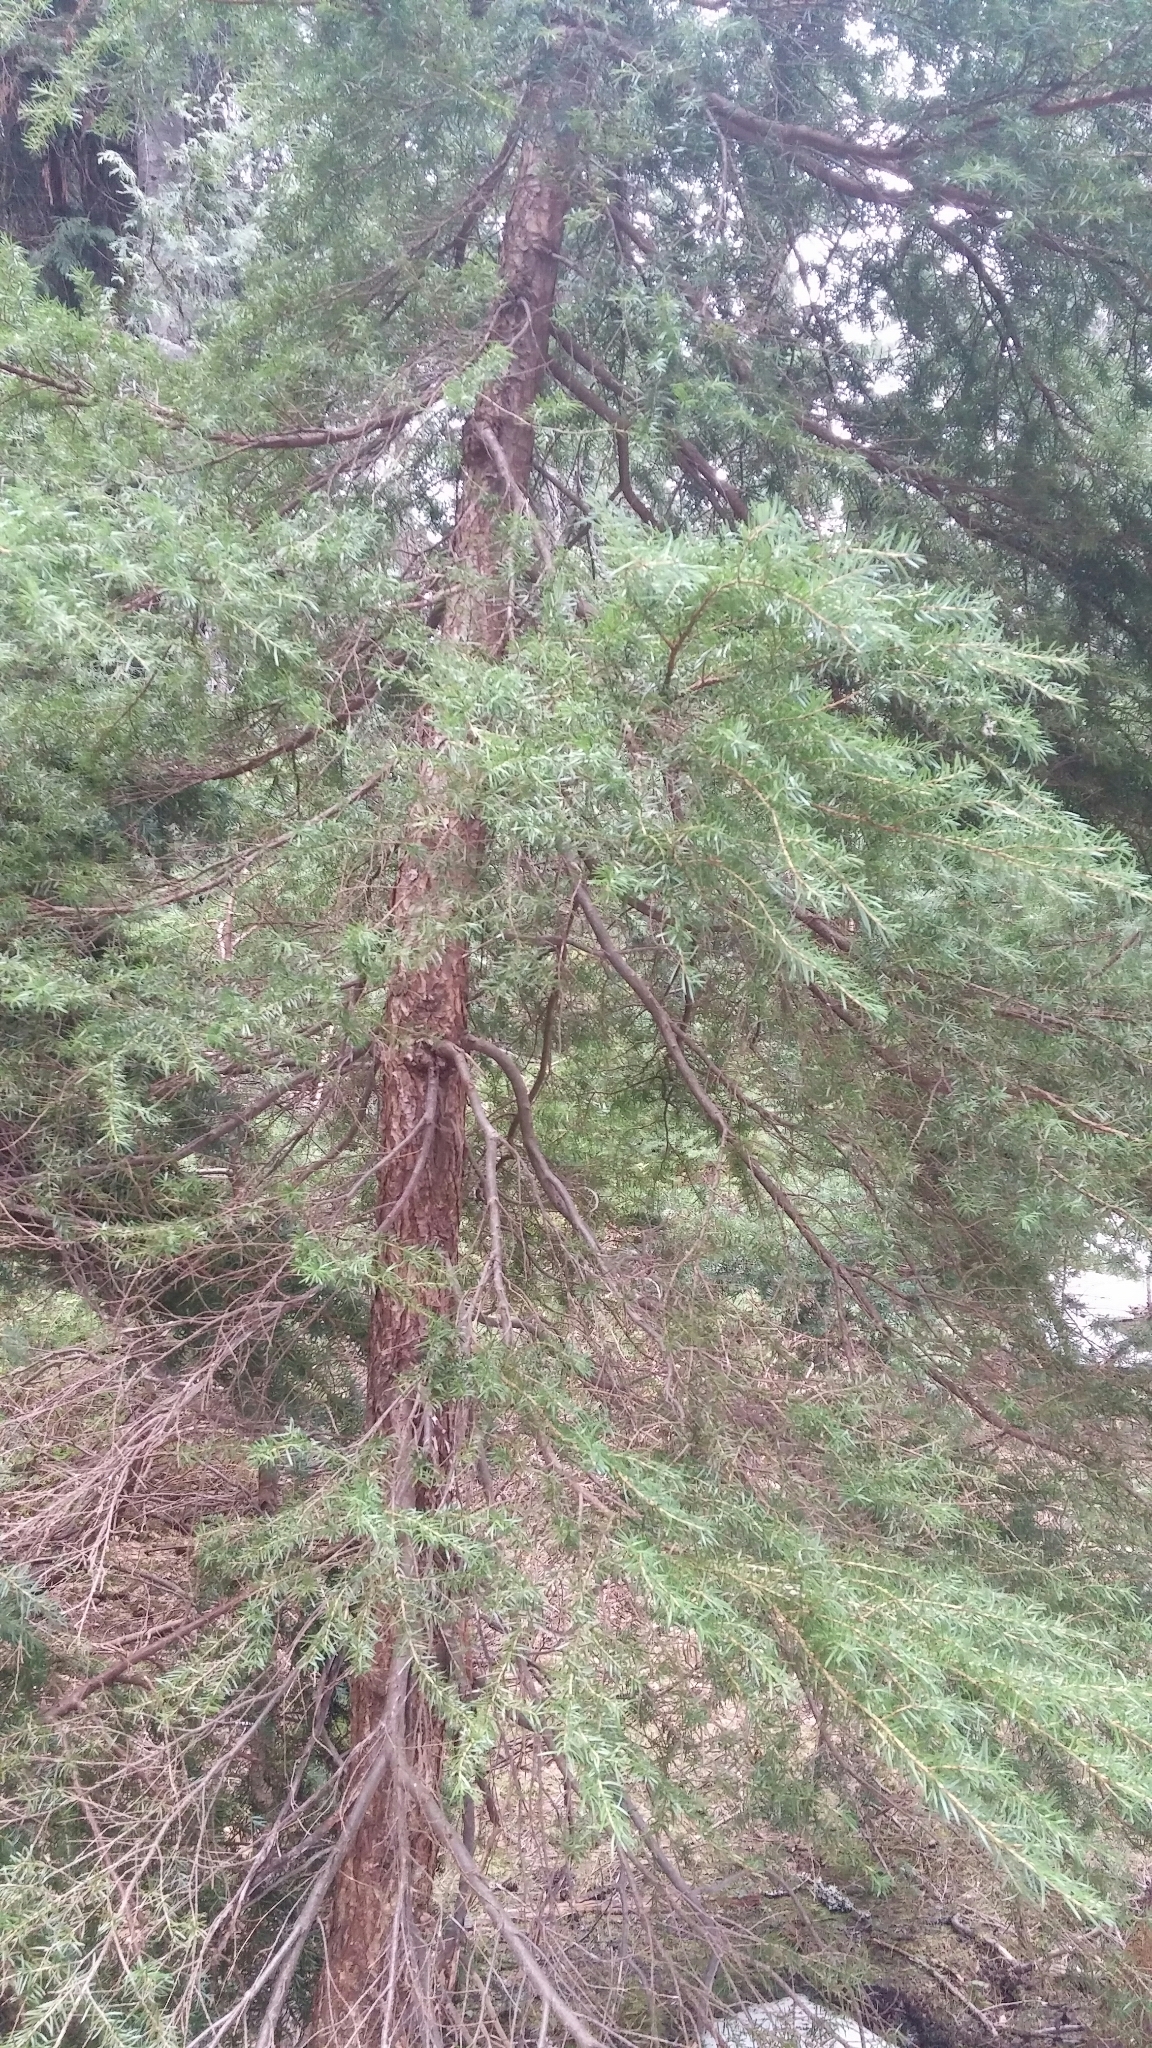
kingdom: Plantae
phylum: Tracheophyta
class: Pinopsida
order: Pinales
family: Pinaceae
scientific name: Pinaceae
